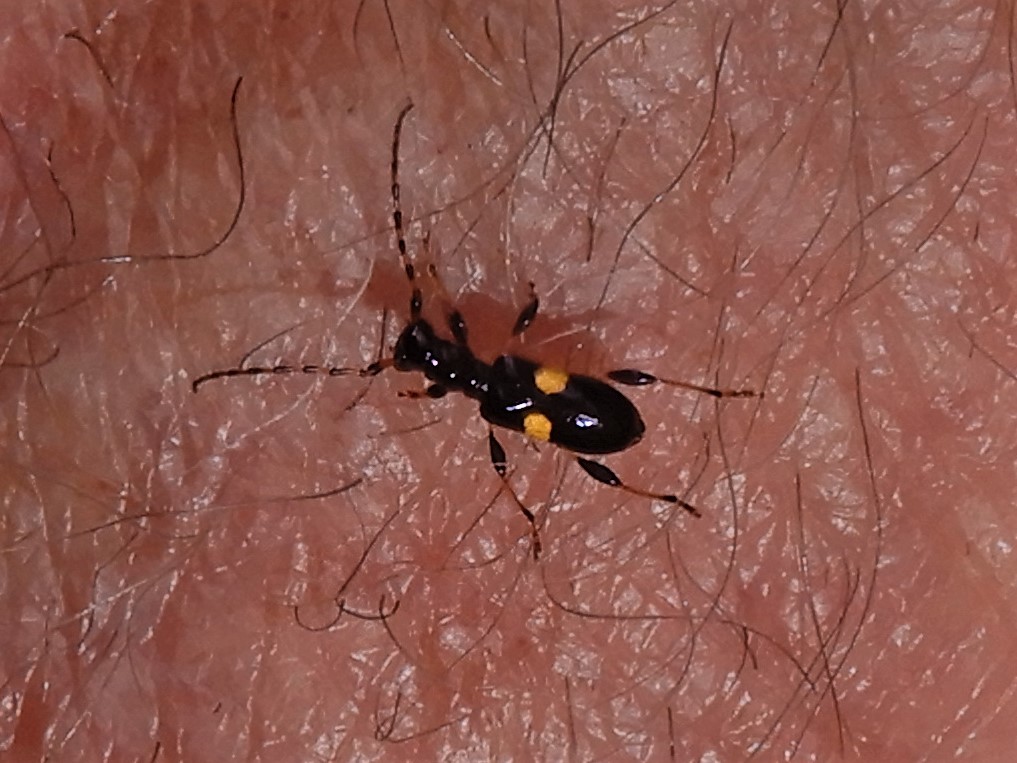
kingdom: Animalia
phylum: Arthropoda
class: Insecta
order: Coleoptera
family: Cerambycidae
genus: Zorion
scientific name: Zorion guttigerum
